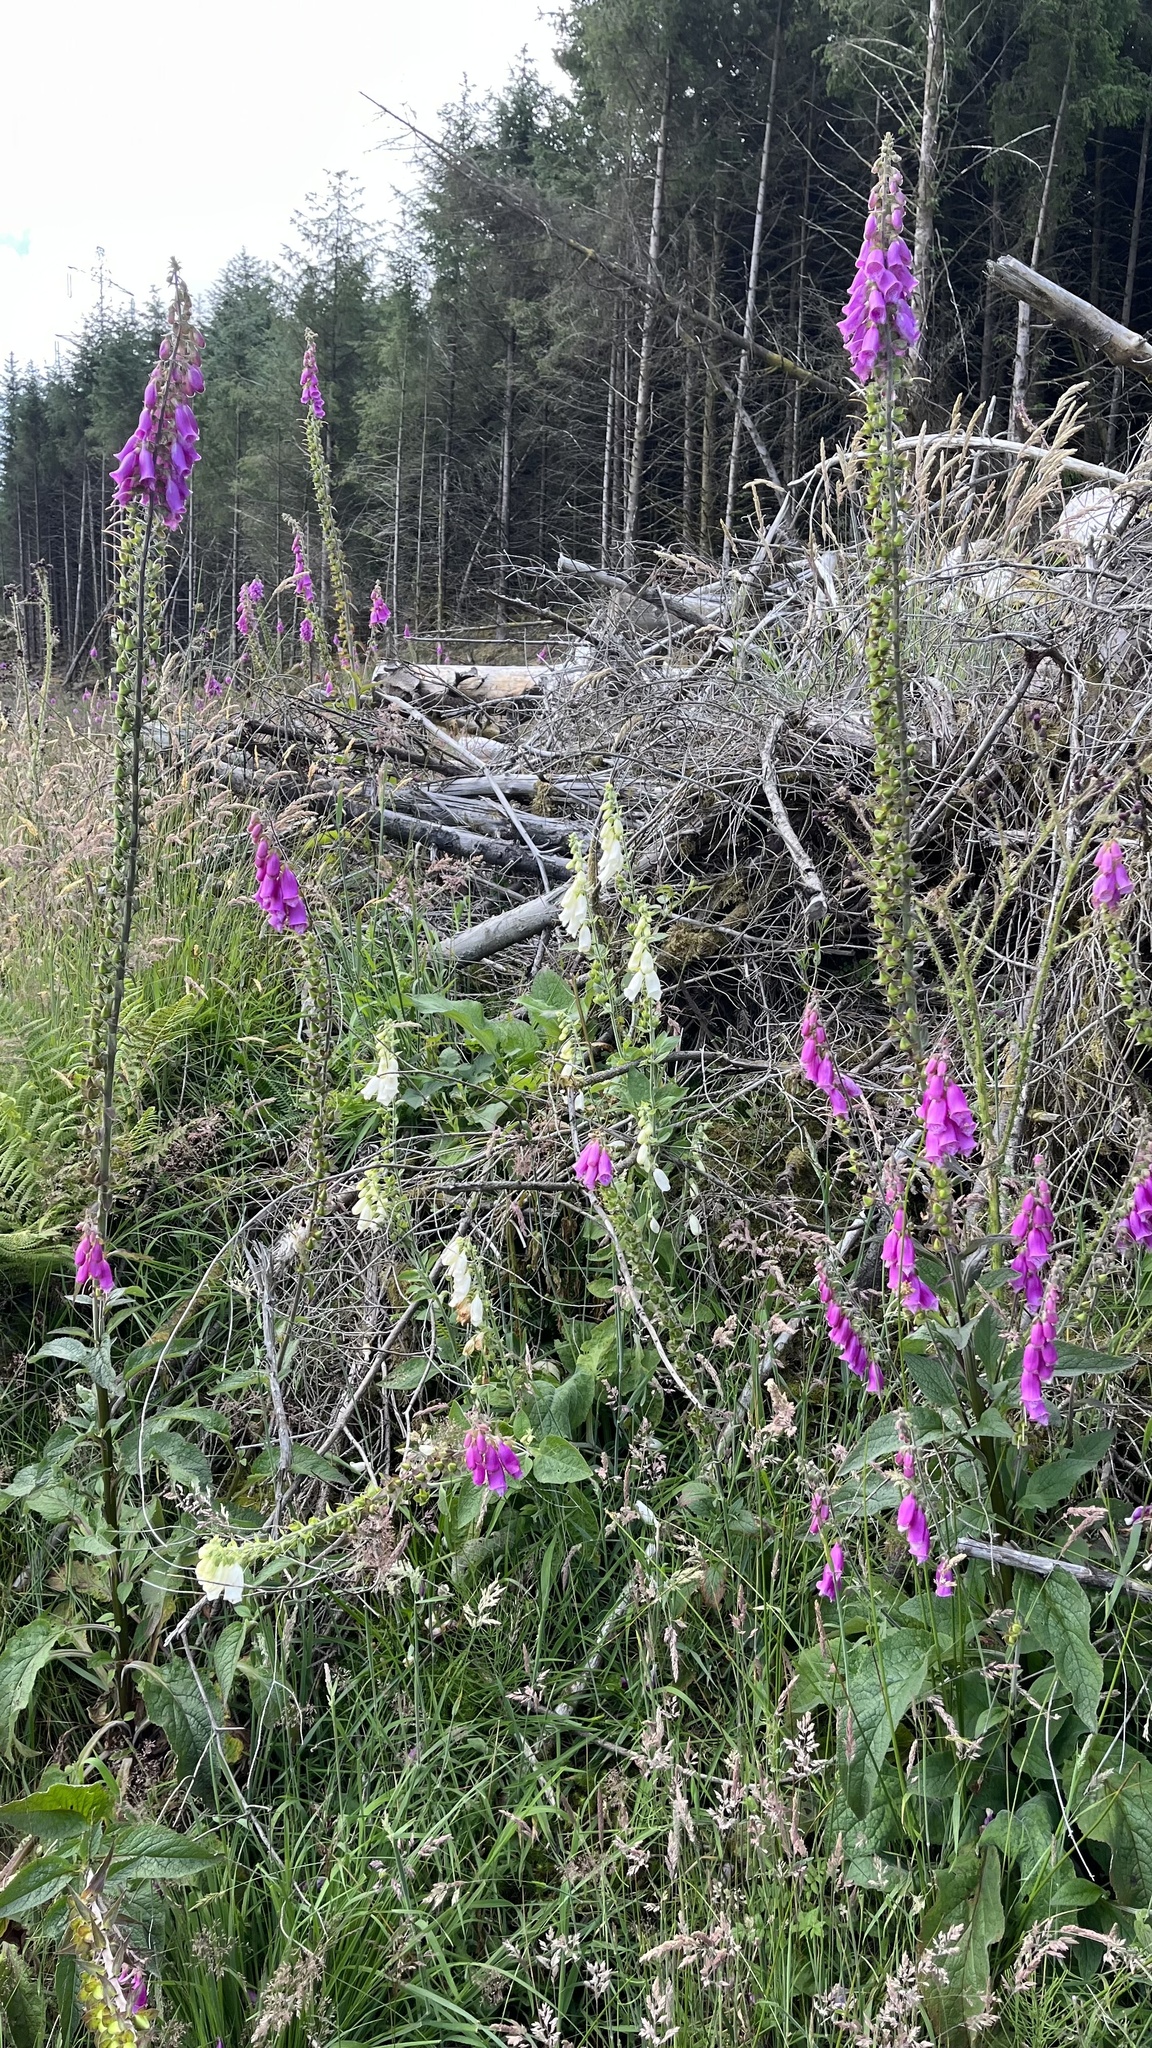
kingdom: Plantae
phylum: Tracheophyta
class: Magnoliopsida
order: Lamiales
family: Plantaginaceae
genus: Digitalis
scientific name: Digitalis purpurea
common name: Foxglove
